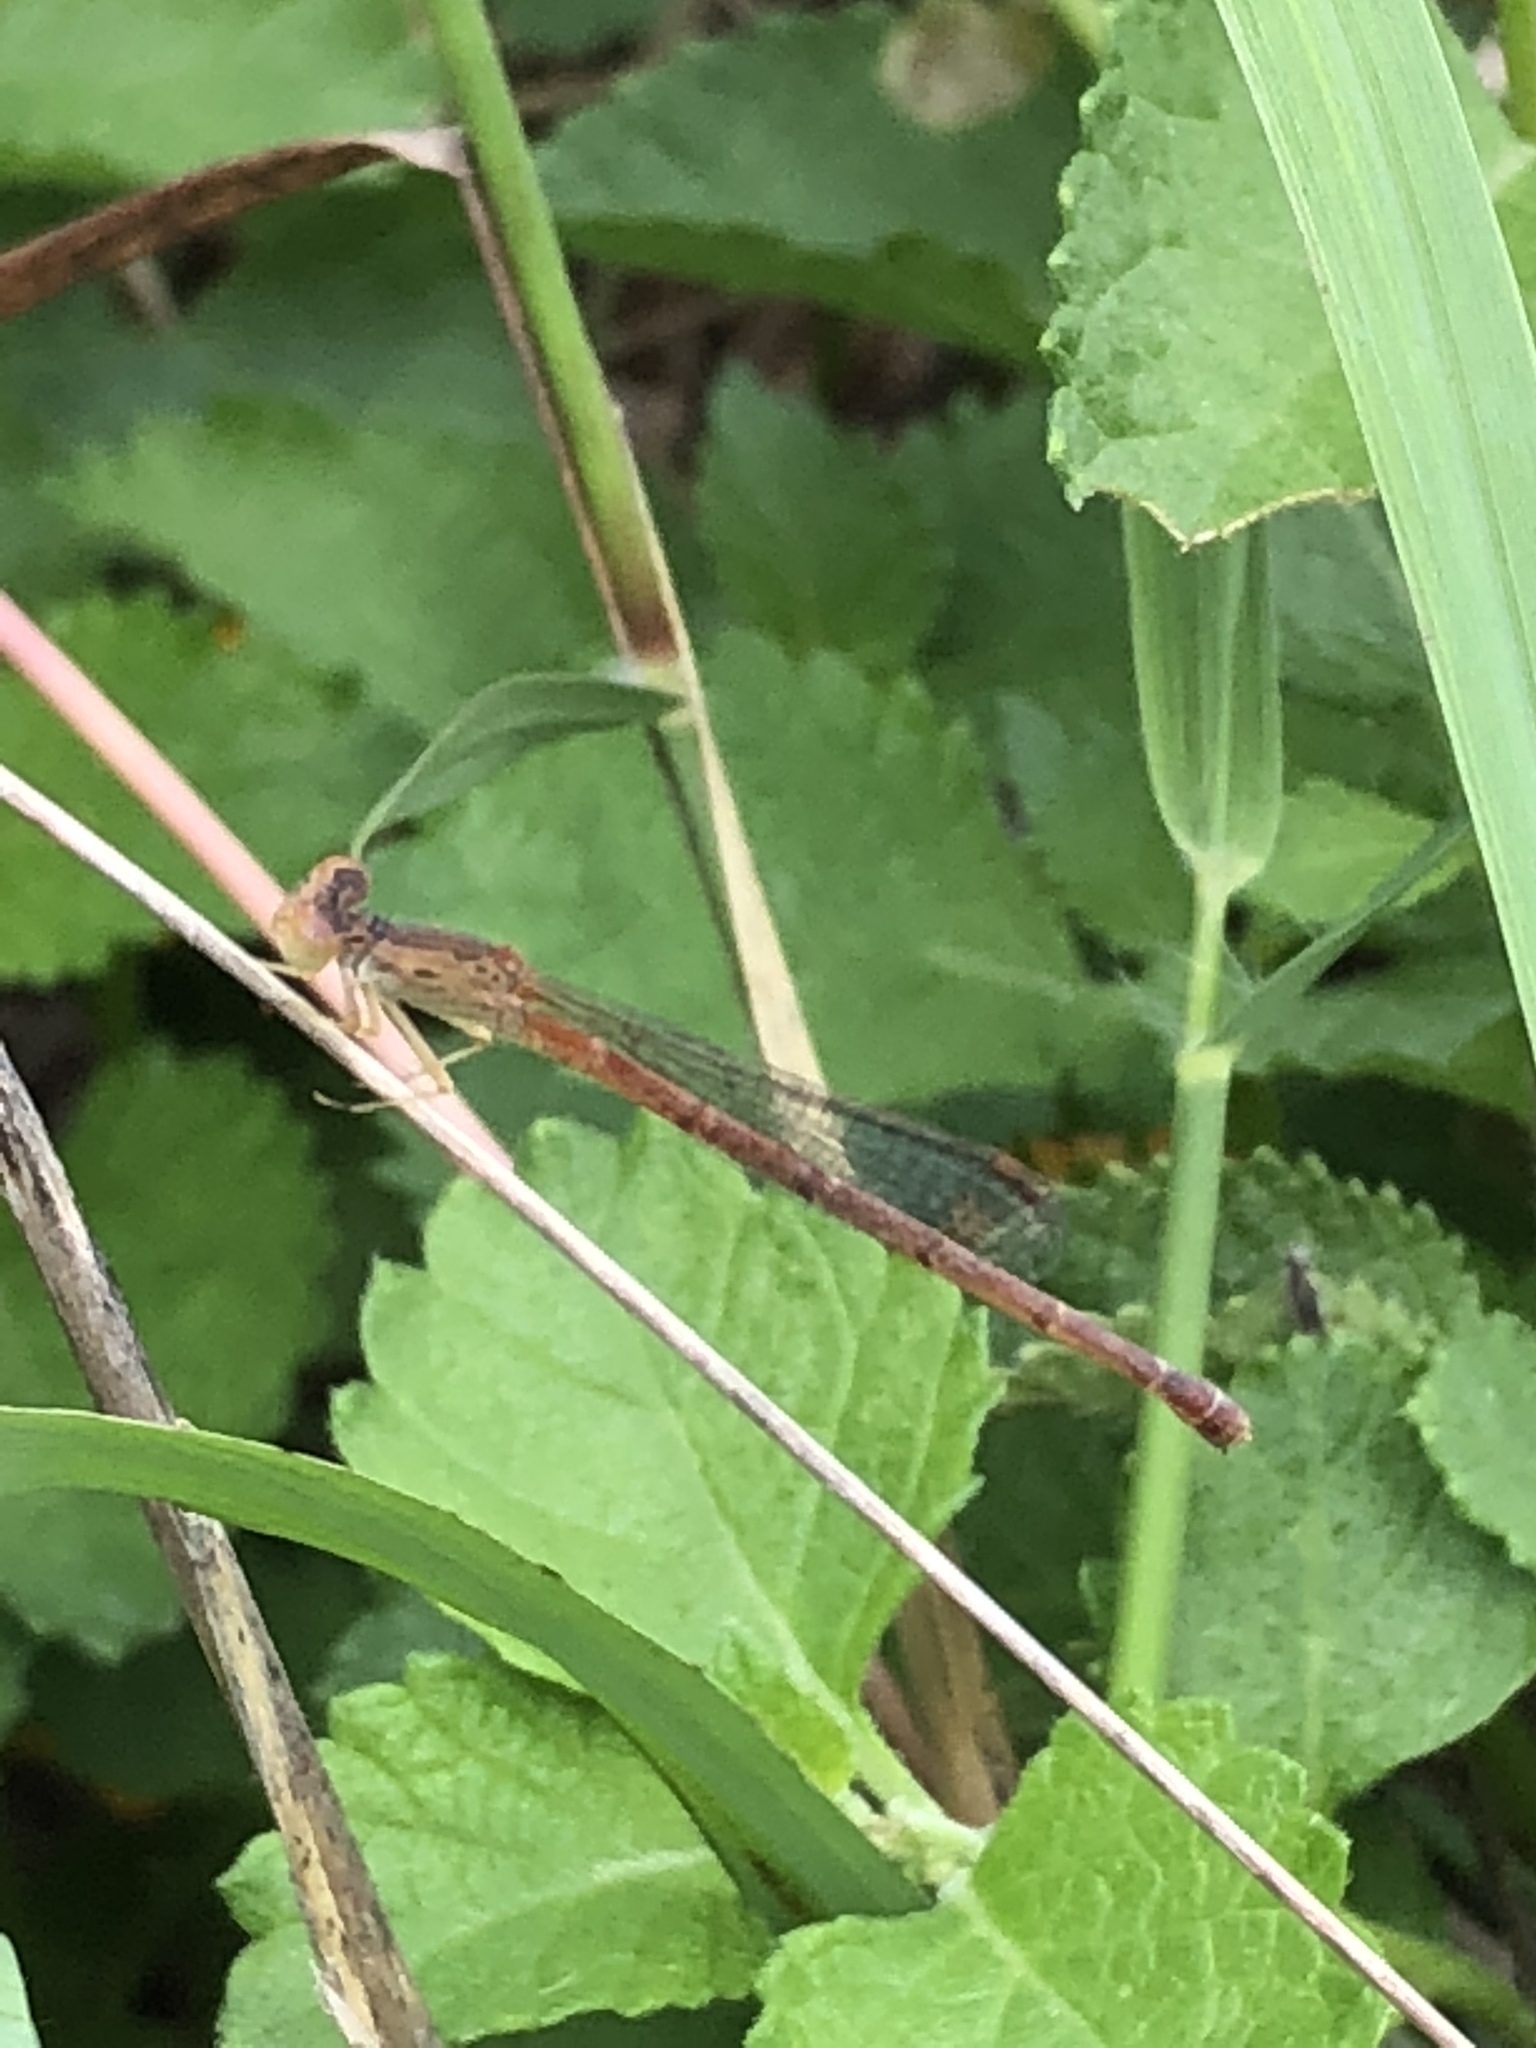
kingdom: Animalia
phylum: Arthropoda
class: Insecta
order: Odonata
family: Coenagrionidae
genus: Telebasis
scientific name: Telebasis salva
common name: Desert firetail
